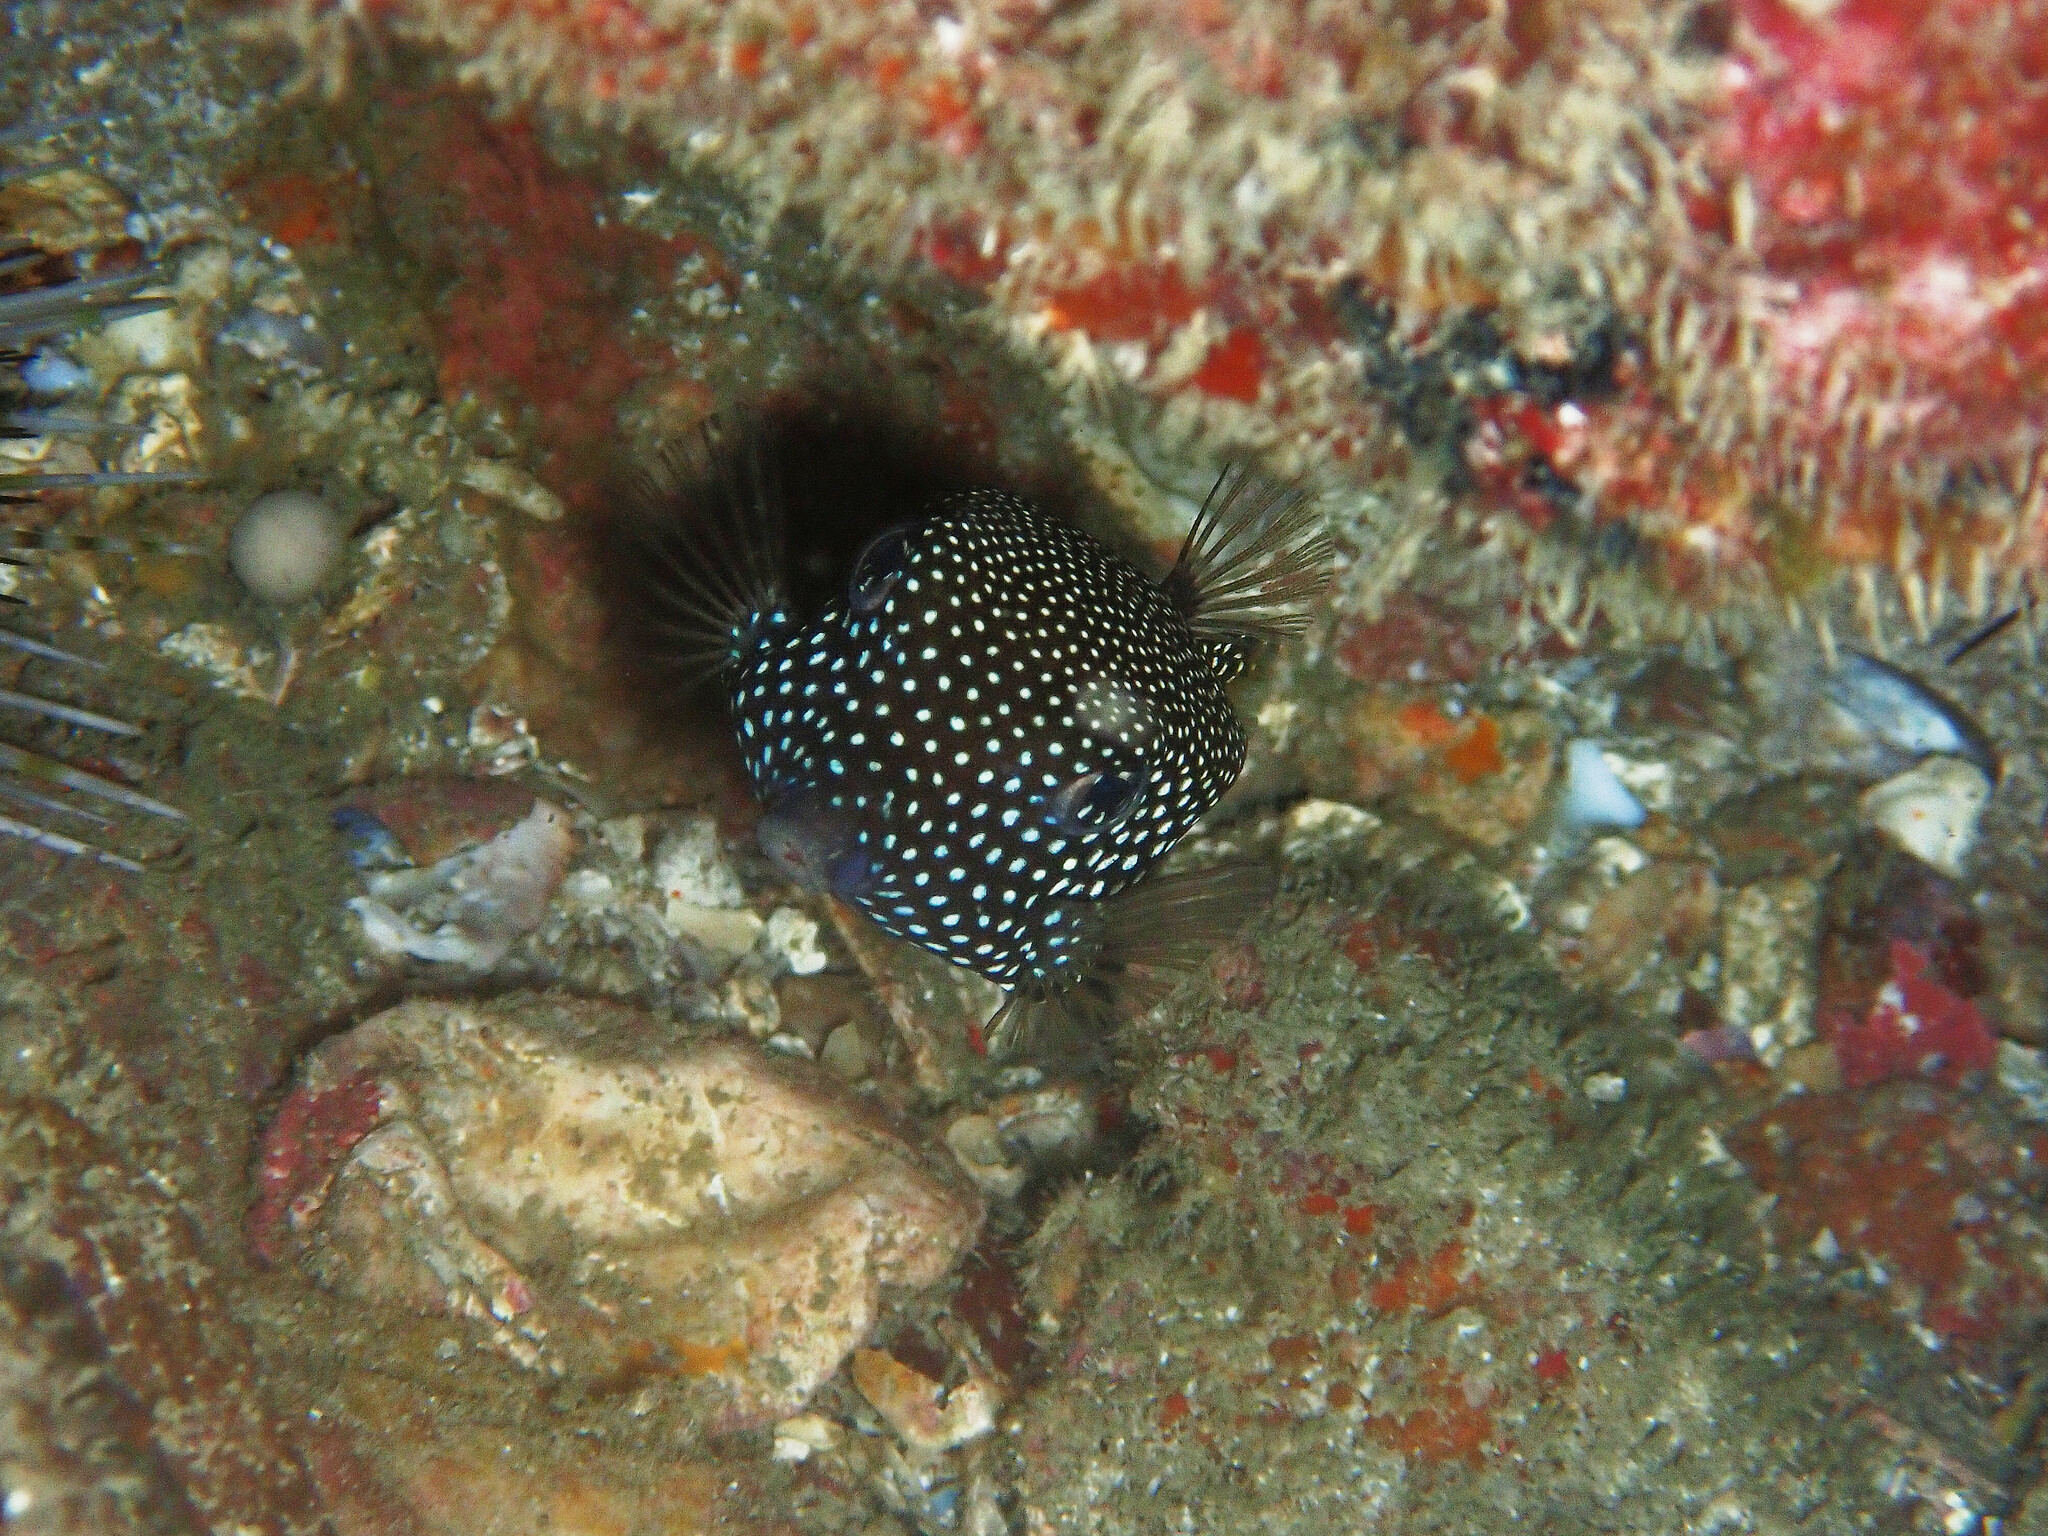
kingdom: Animalia
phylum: Chordata
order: Tetraodontiformes
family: Ostraciidae
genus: Ostracion
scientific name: Ostracion meleagris
